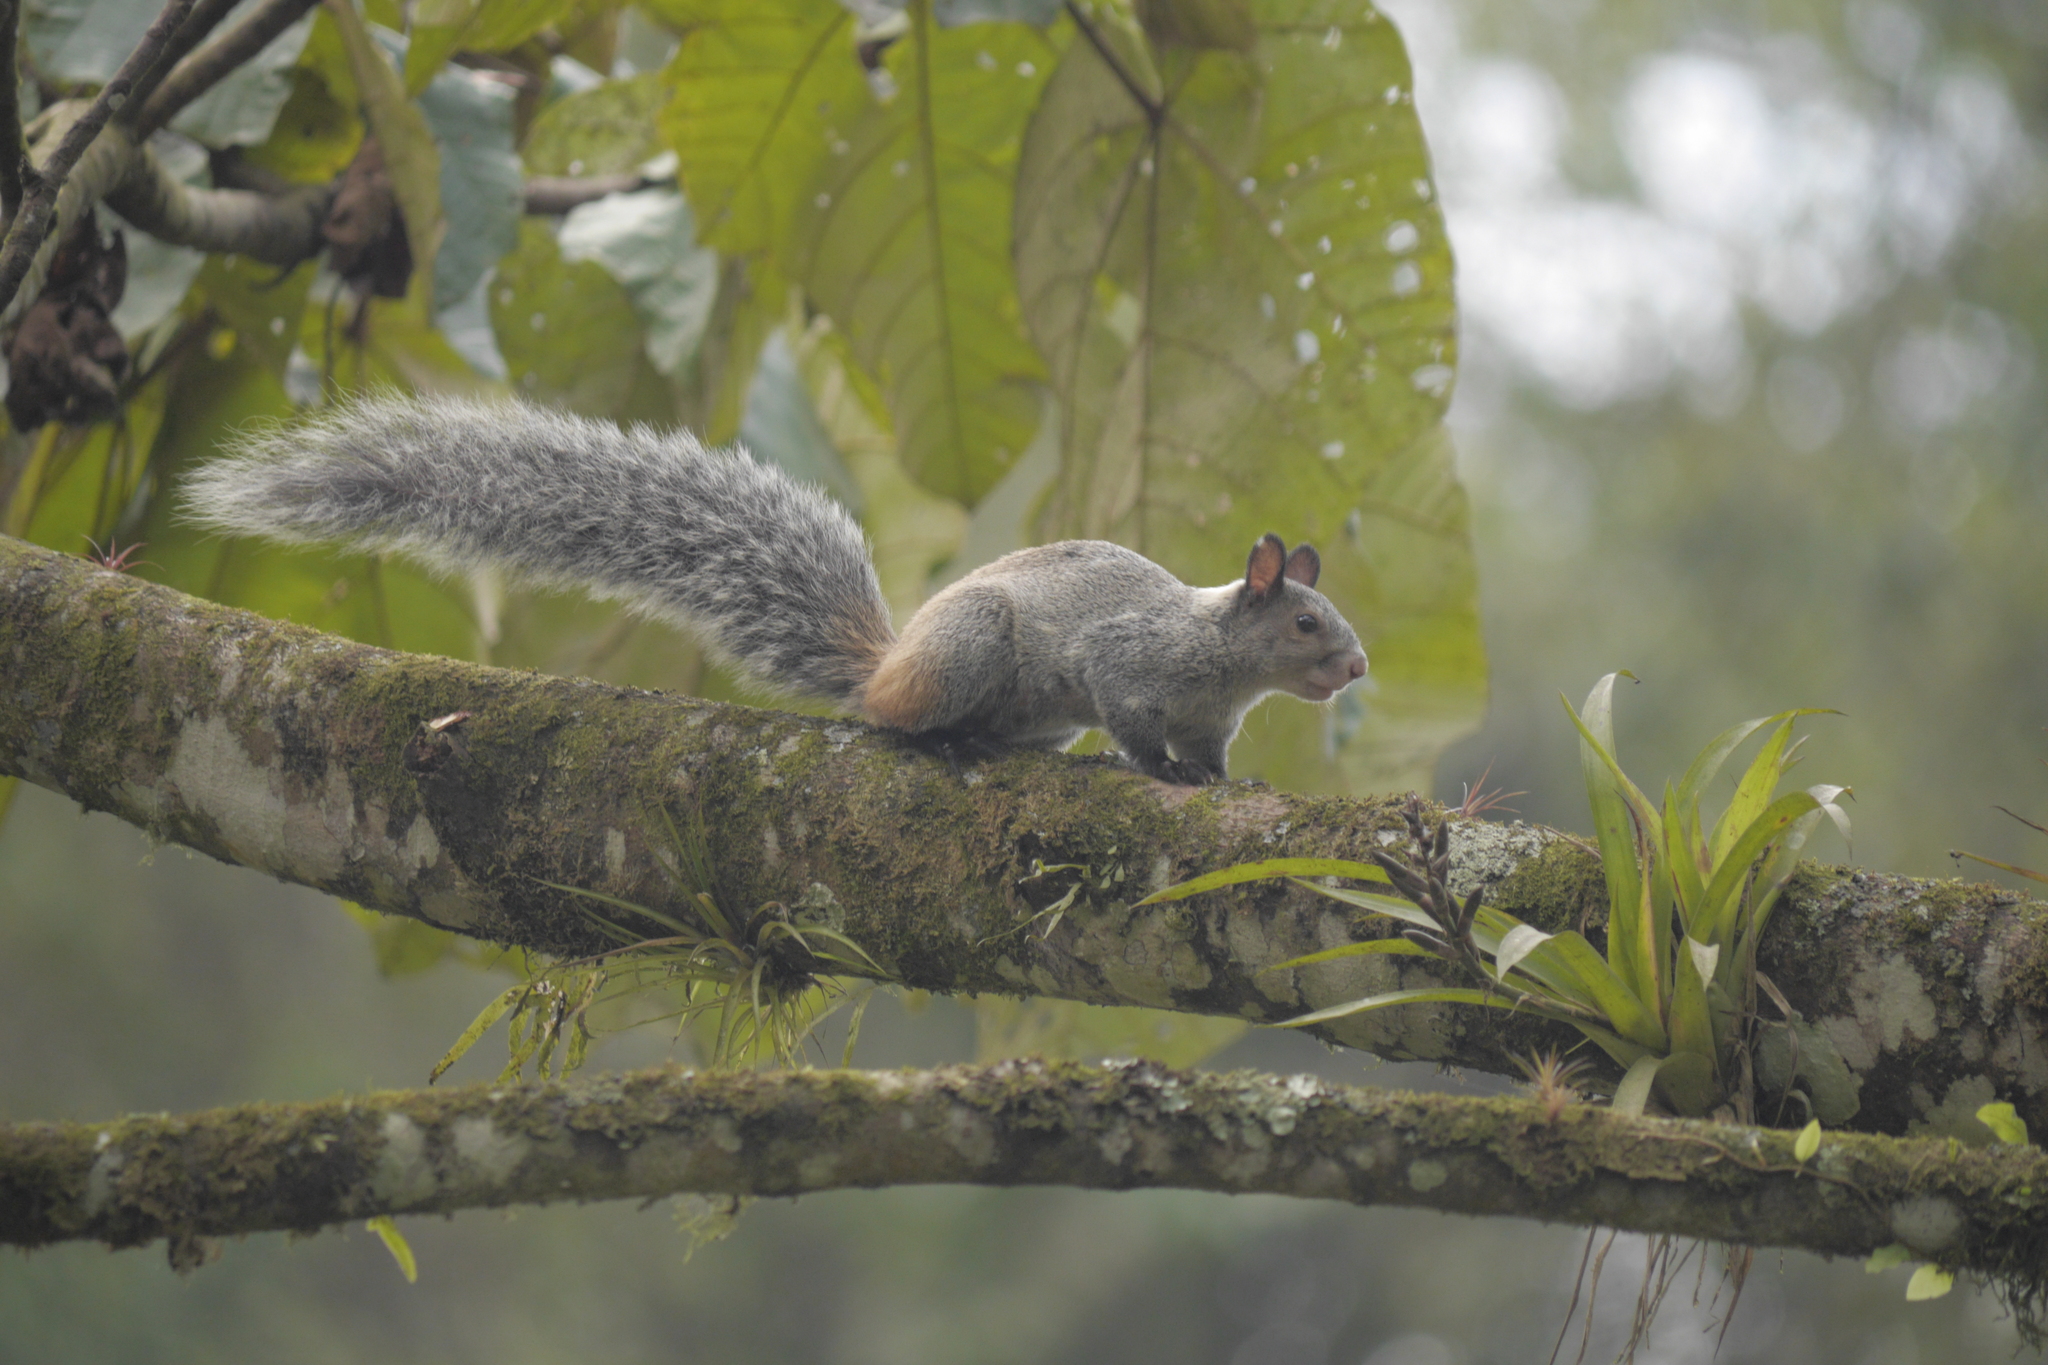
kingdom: Animalia
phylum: Chordata
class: Mammalia
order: Rodentia
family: Sciuridae
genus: Sciurus
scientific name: Sciurus stramineus
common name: Guayaquil squirrel
